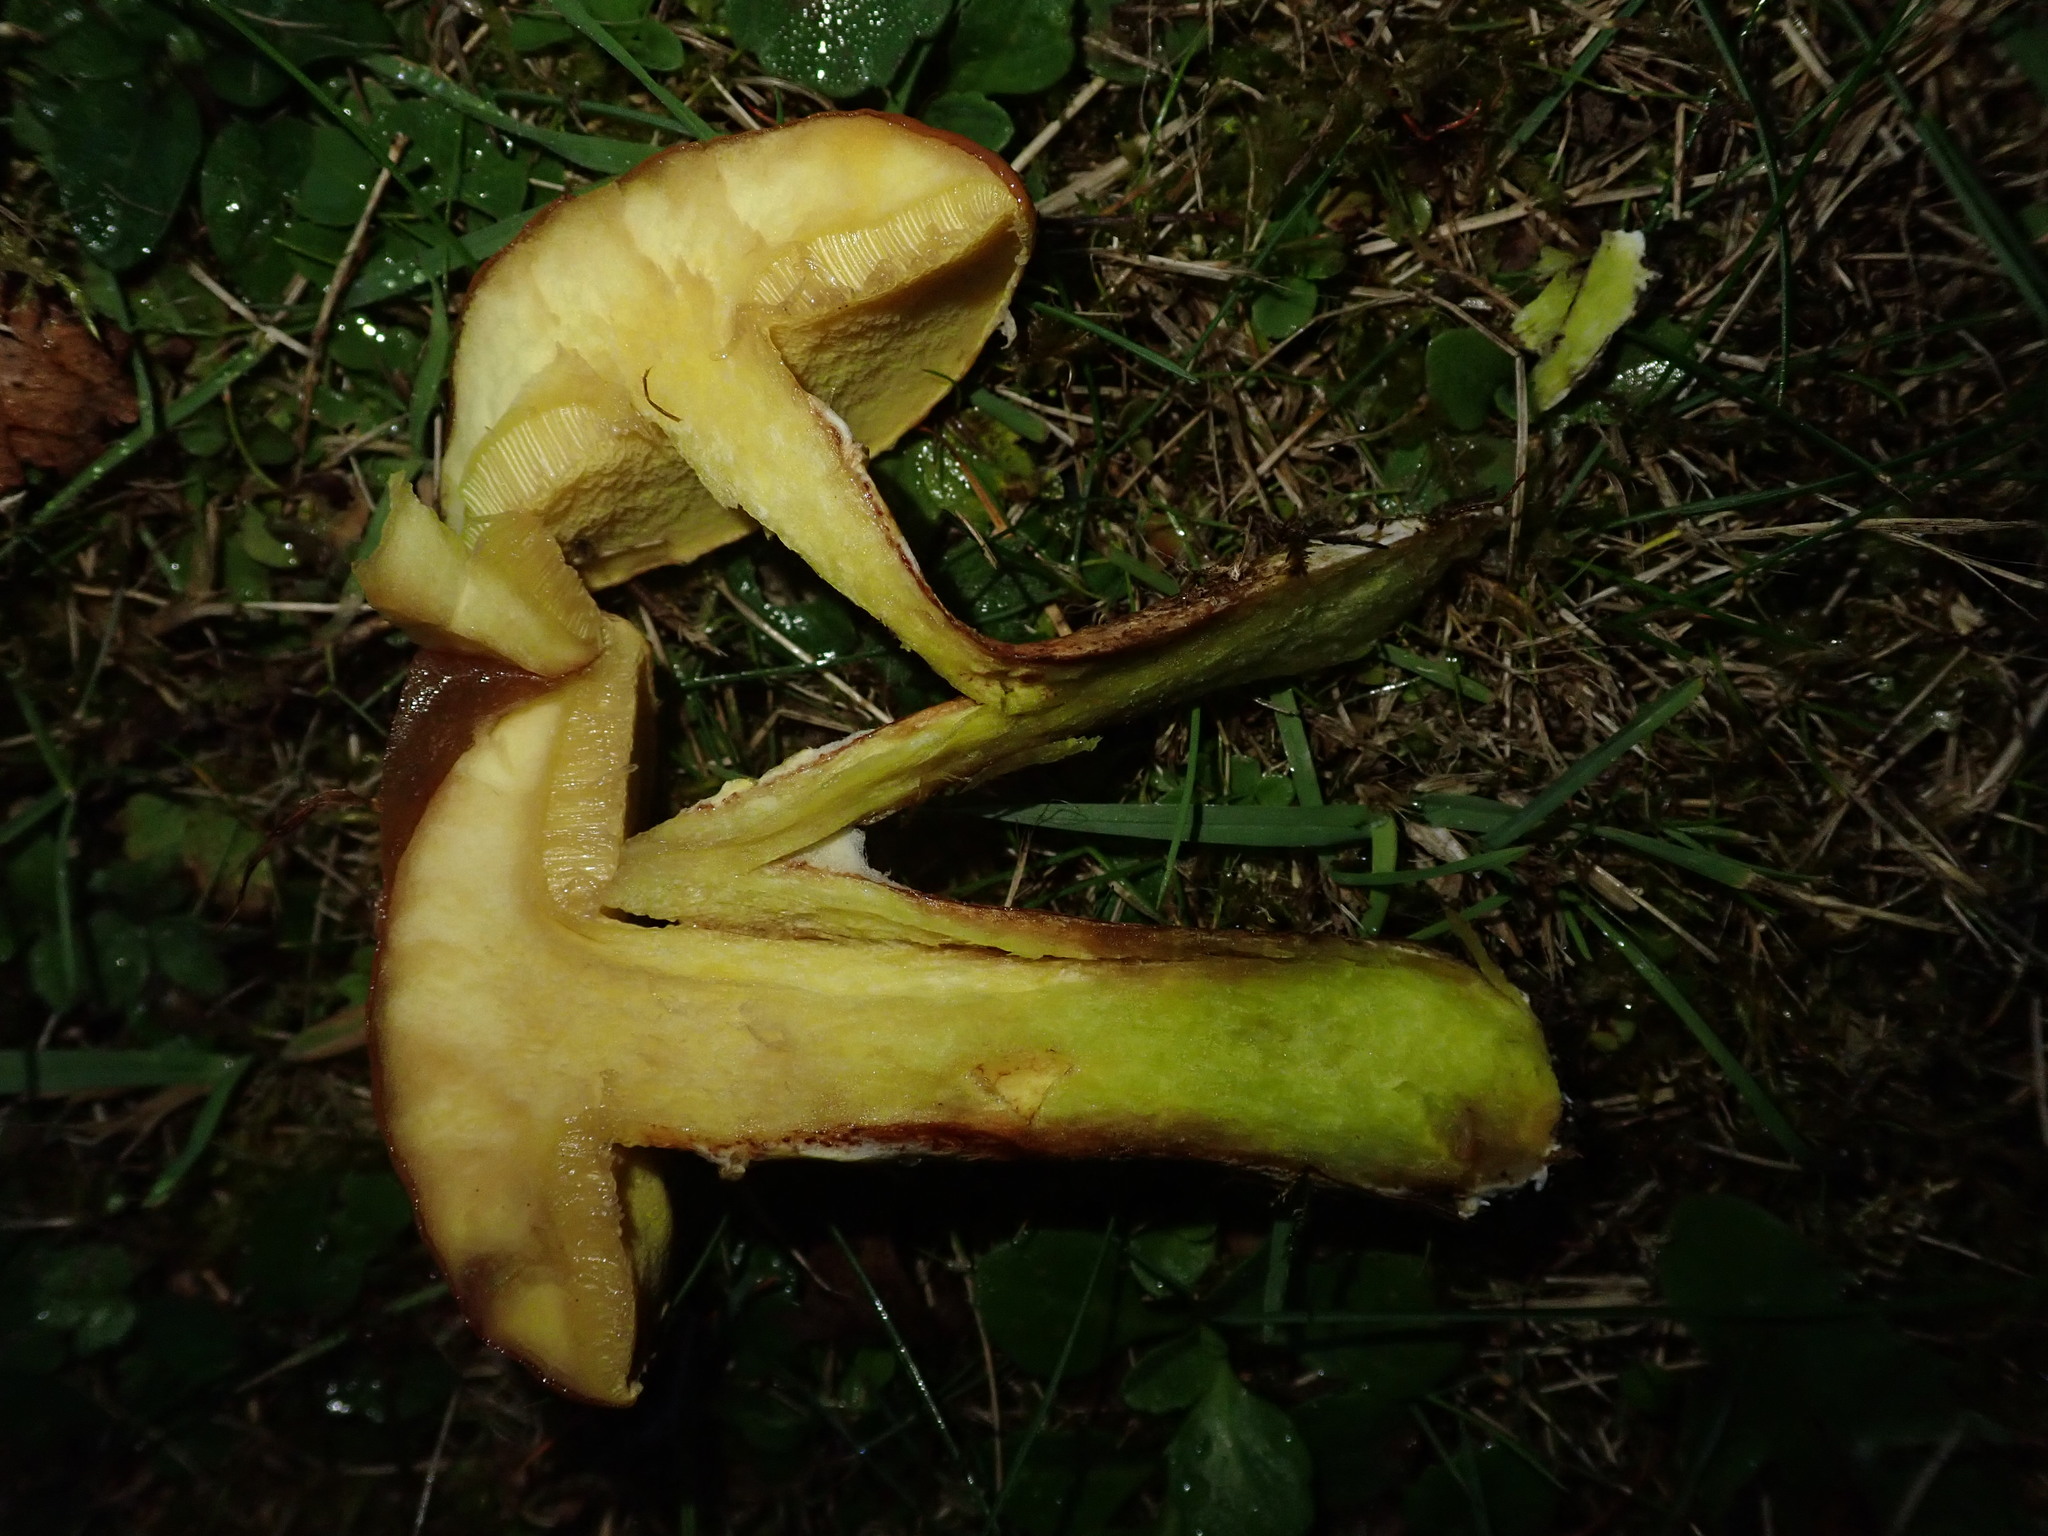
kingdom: Fungi
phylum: Basidiomycota
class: Agaricomycetes
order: Boletales
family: Suillaceae
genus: Suillus
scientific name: Suillus grevillei
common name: Larch bolete
